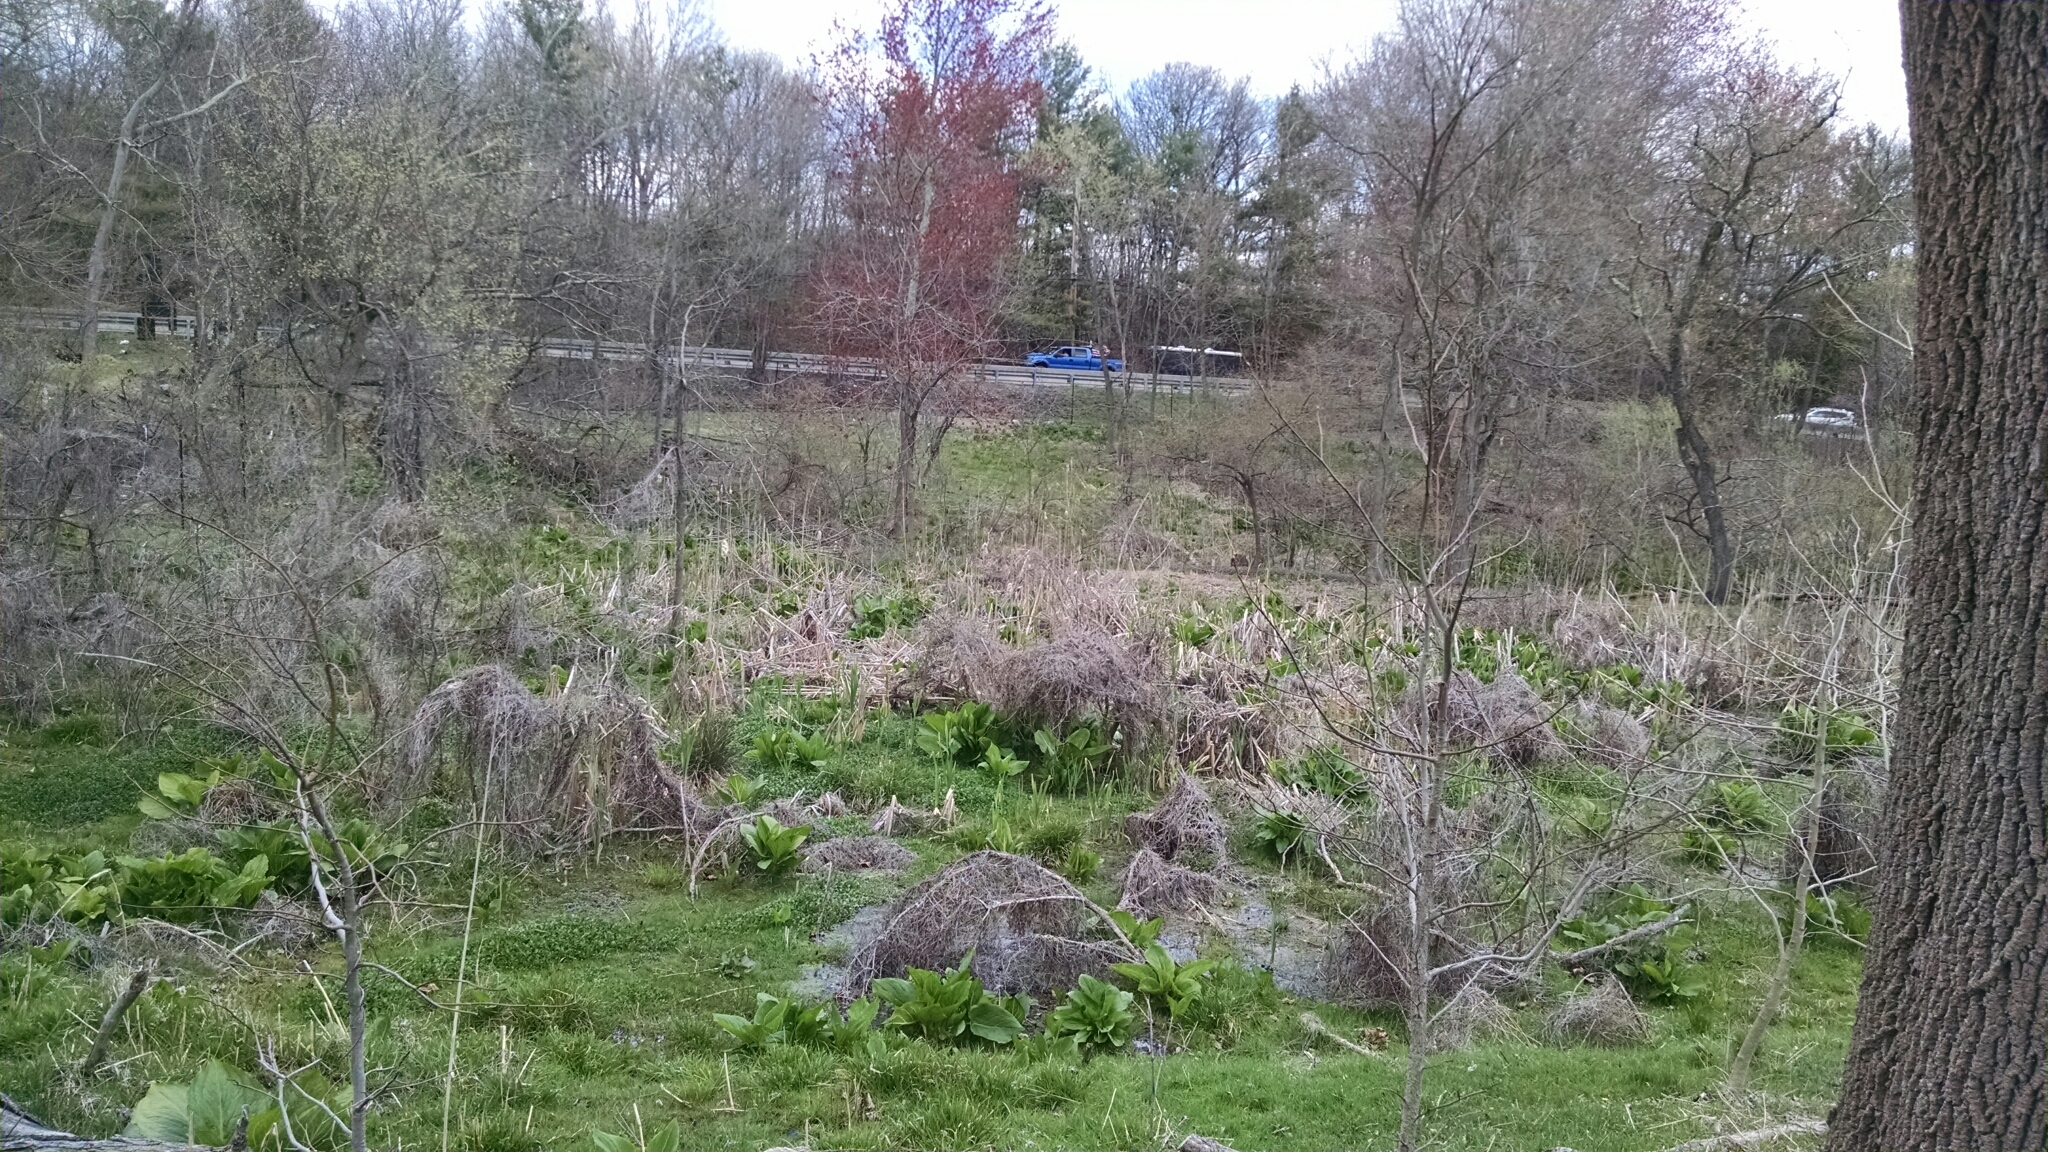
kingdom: Plantae
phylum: Tracheophyta
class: Liliopsida
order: Alismatales
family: Araceae
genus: Symplocarpus
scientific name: Symplocarpus foetidus
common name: Eastern skunk cabbage
